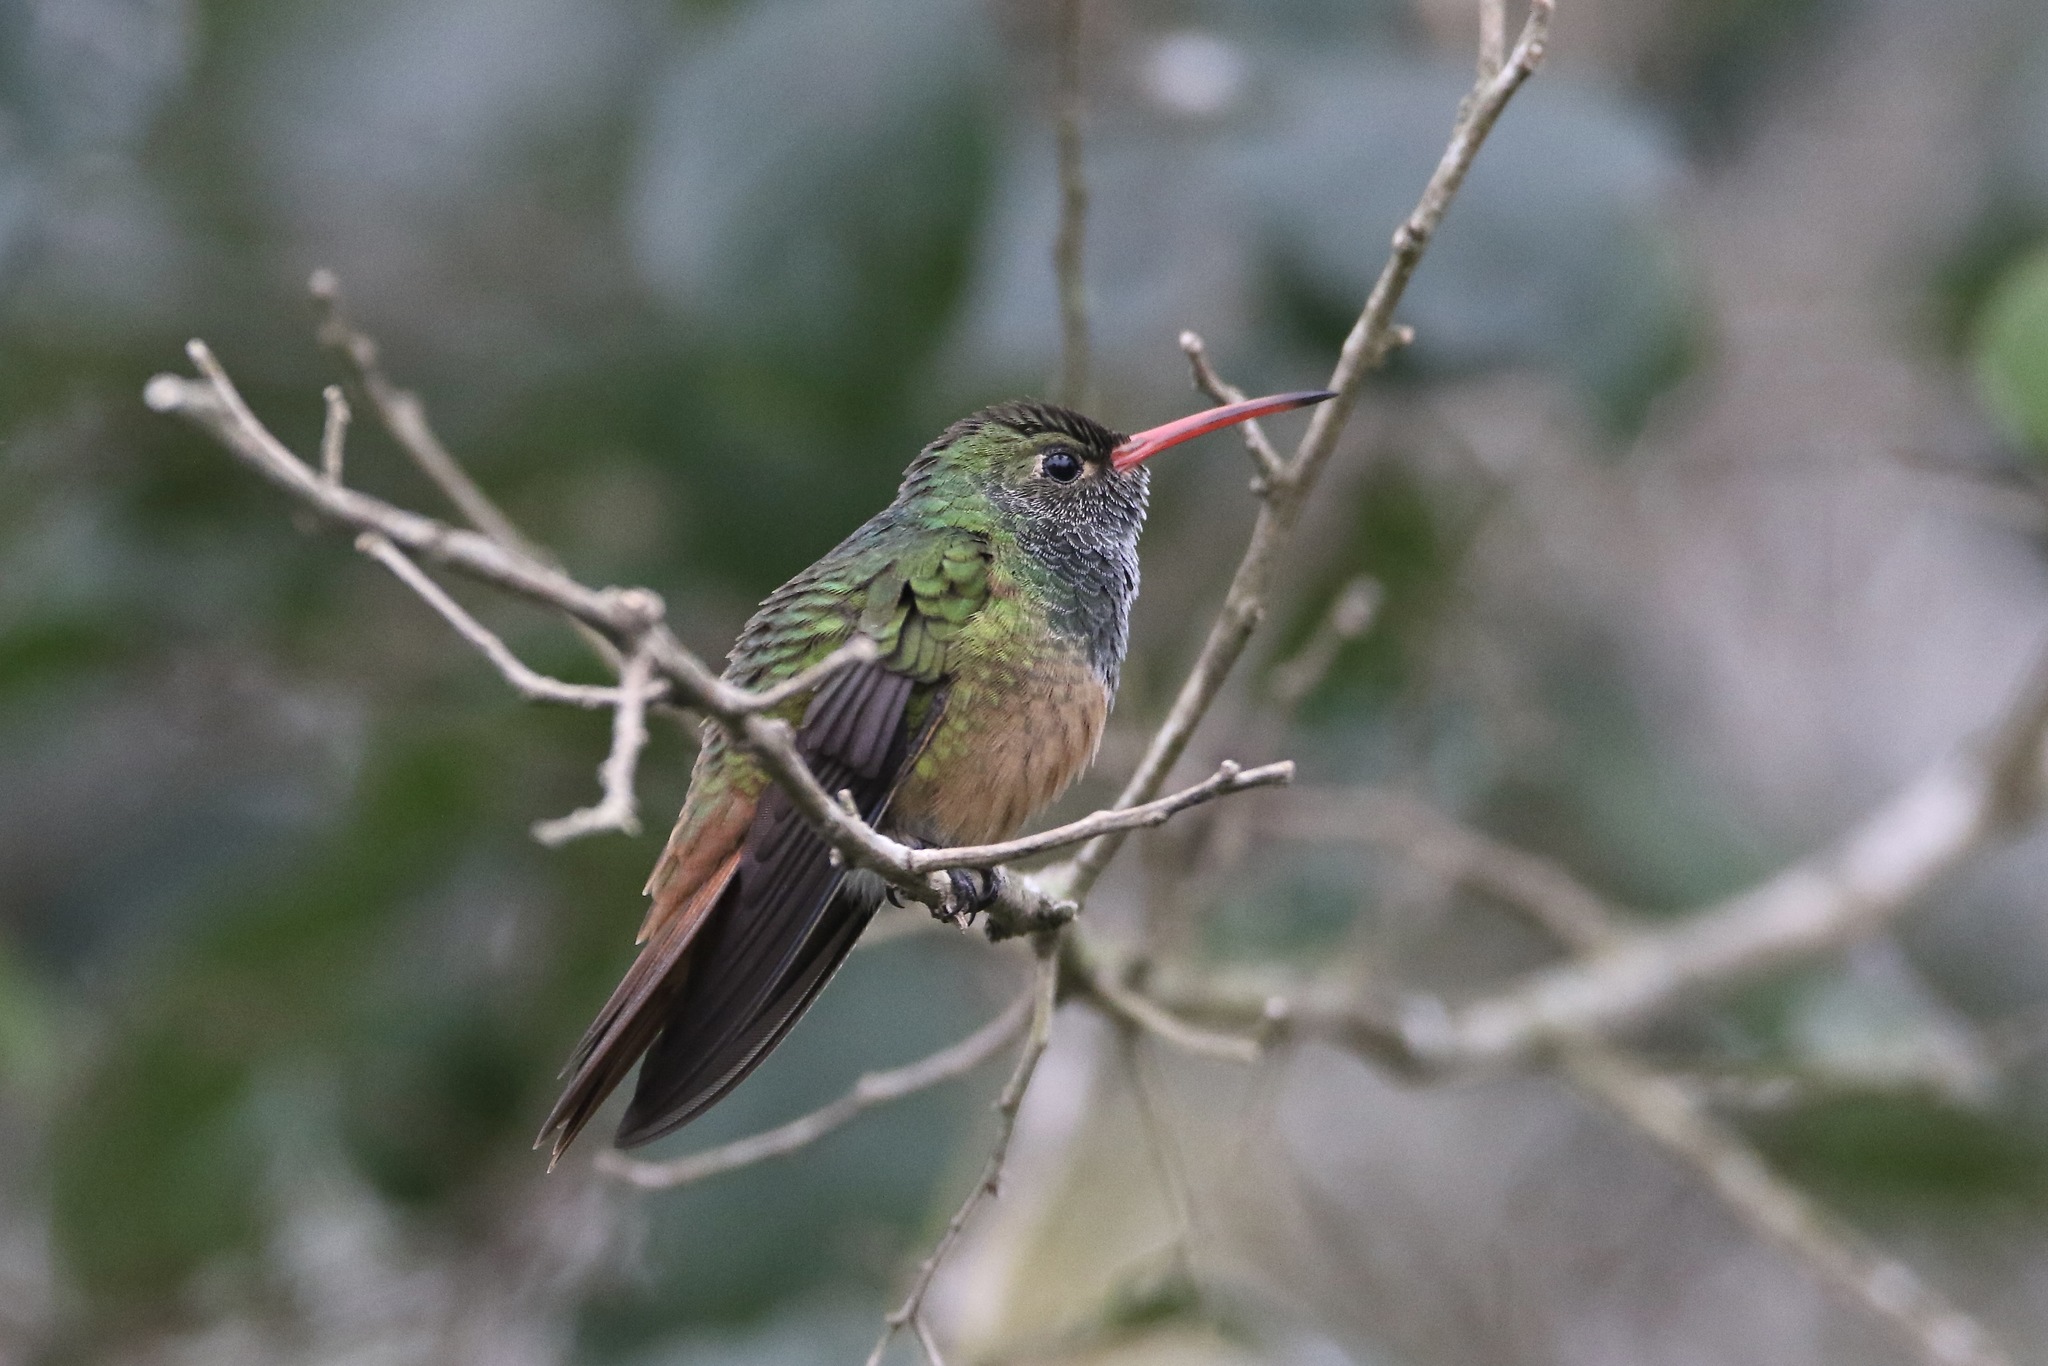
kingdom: Animalia
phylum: Chordata
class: Aves
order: Apodiformes
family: Trochilidae
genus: Amazilia
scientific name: Amazilia yucatanensis
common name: Buff-bellied hummingbird
